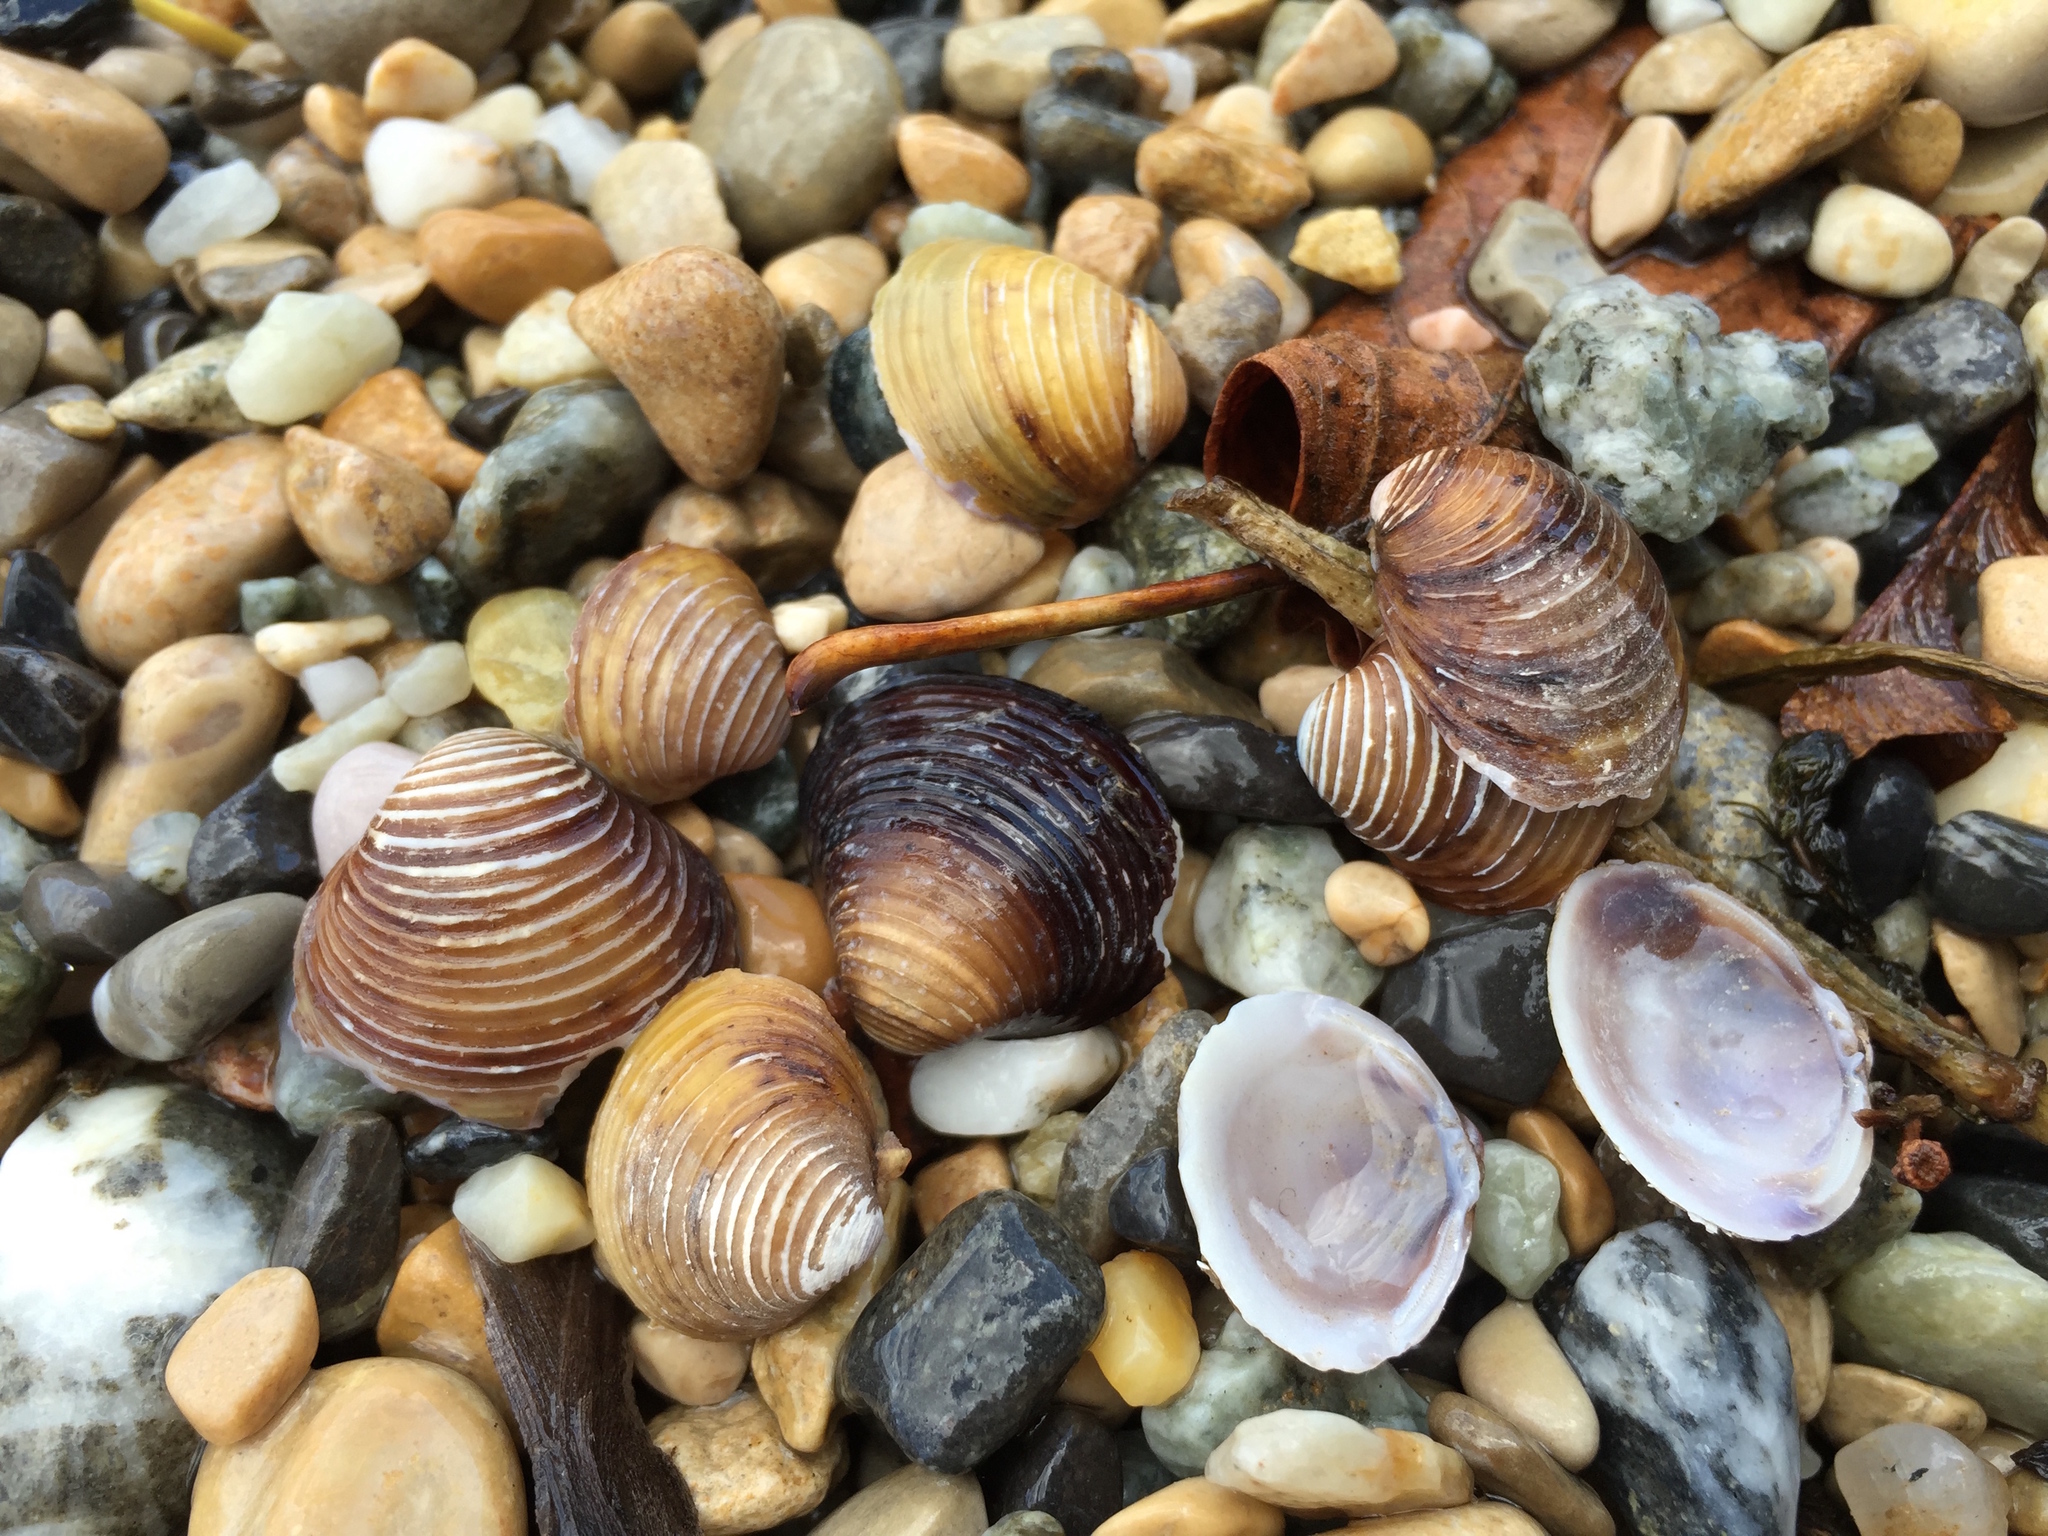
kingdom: Animalia
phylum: Mollusca
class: Bivalvia
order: Venerida
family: Cyrenidae
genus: Corbicula
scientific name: Corbicula fluminea
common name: Asian clam
